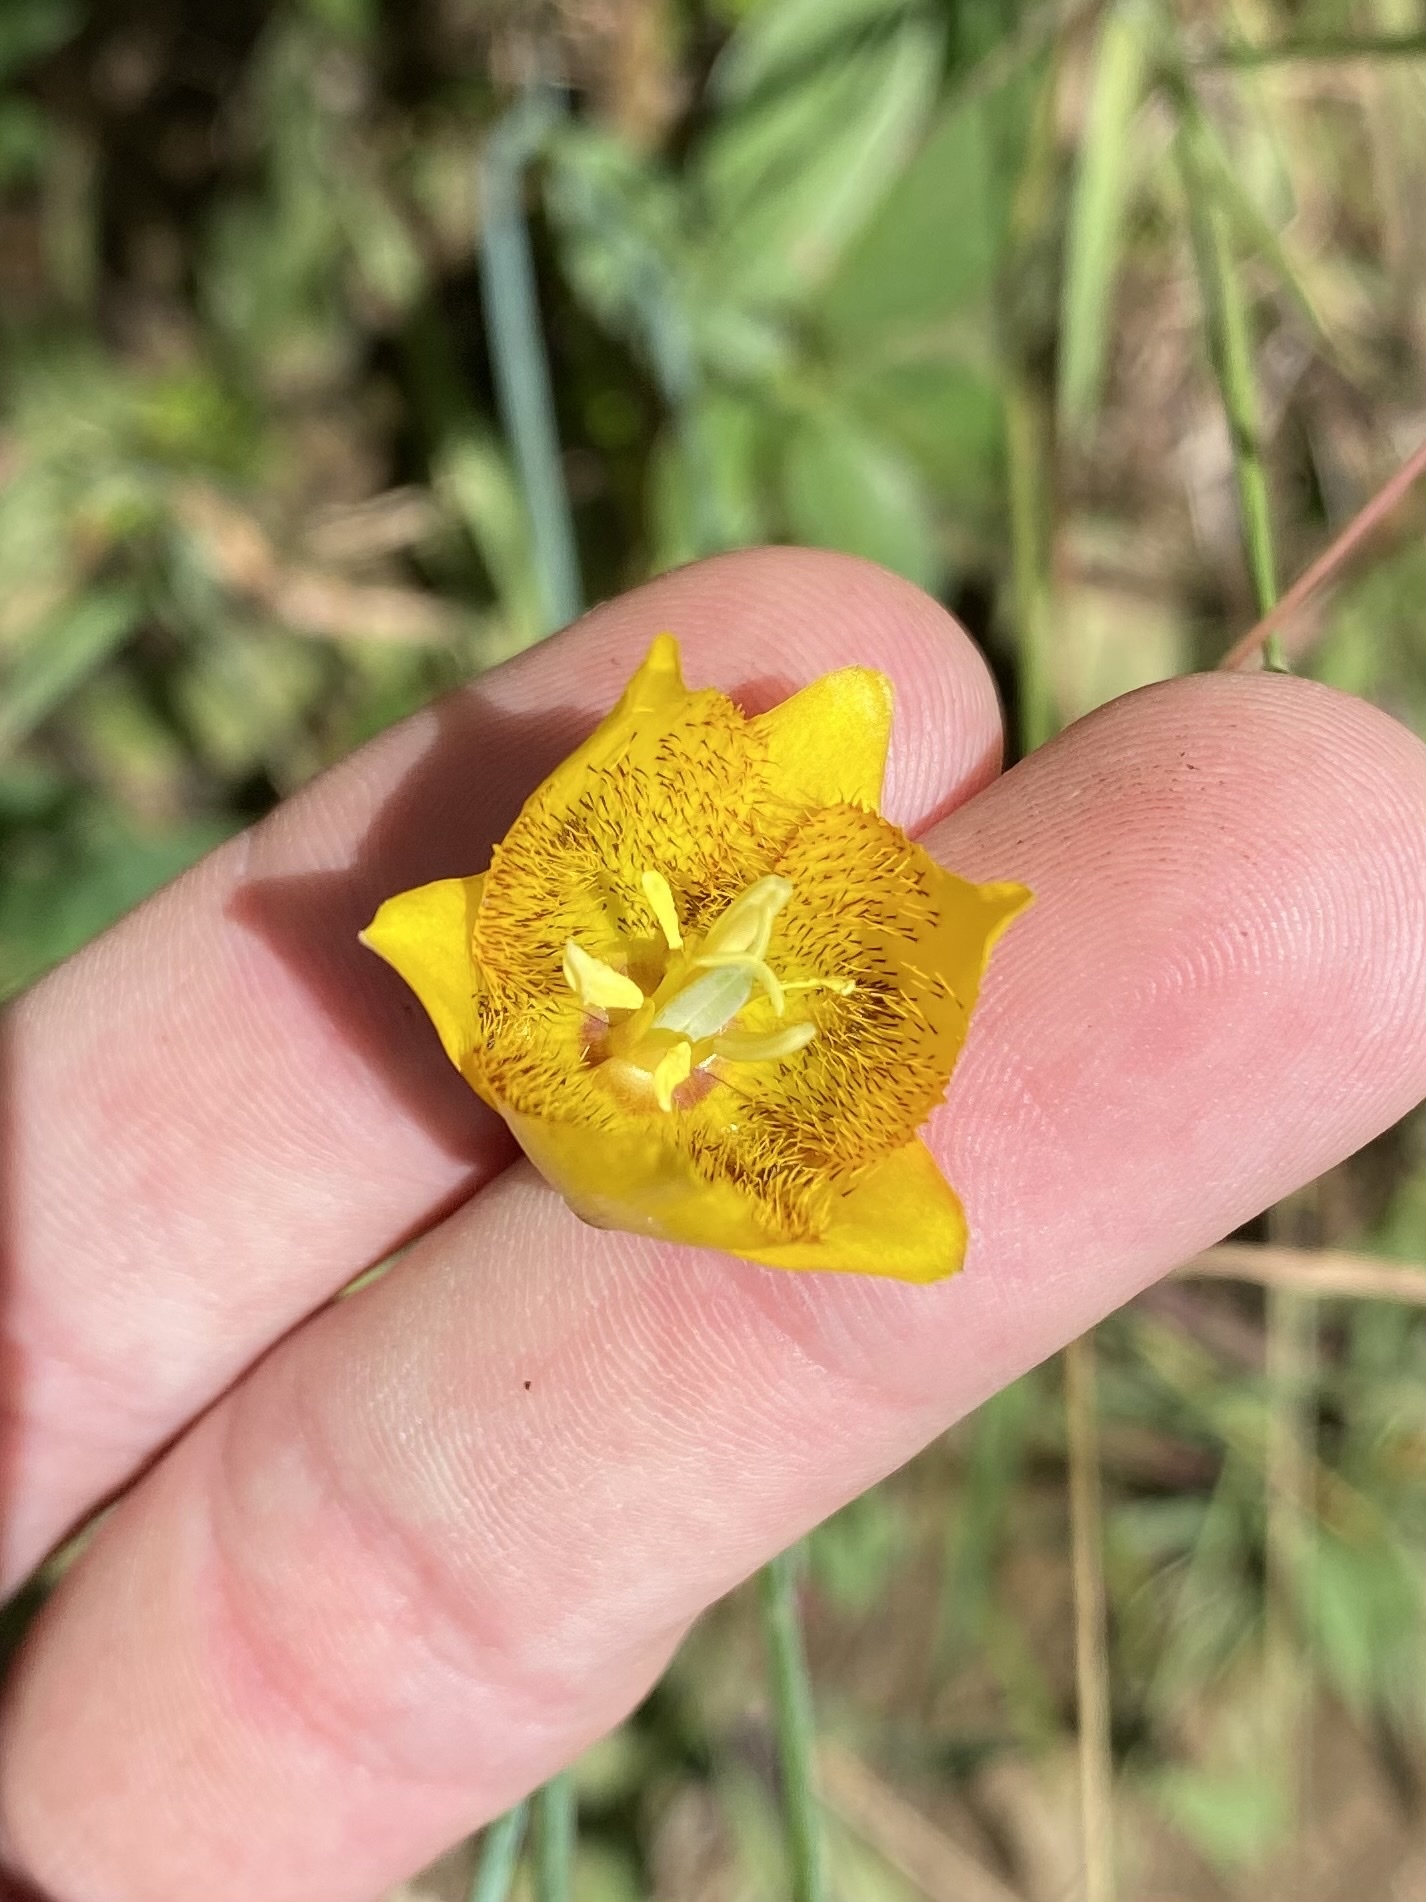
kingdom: Plantae
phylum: Tracheophyta
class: Liliopsida
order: Liliales
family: Liliaceae
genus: Calochortus
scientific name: Calochortus barbatus
